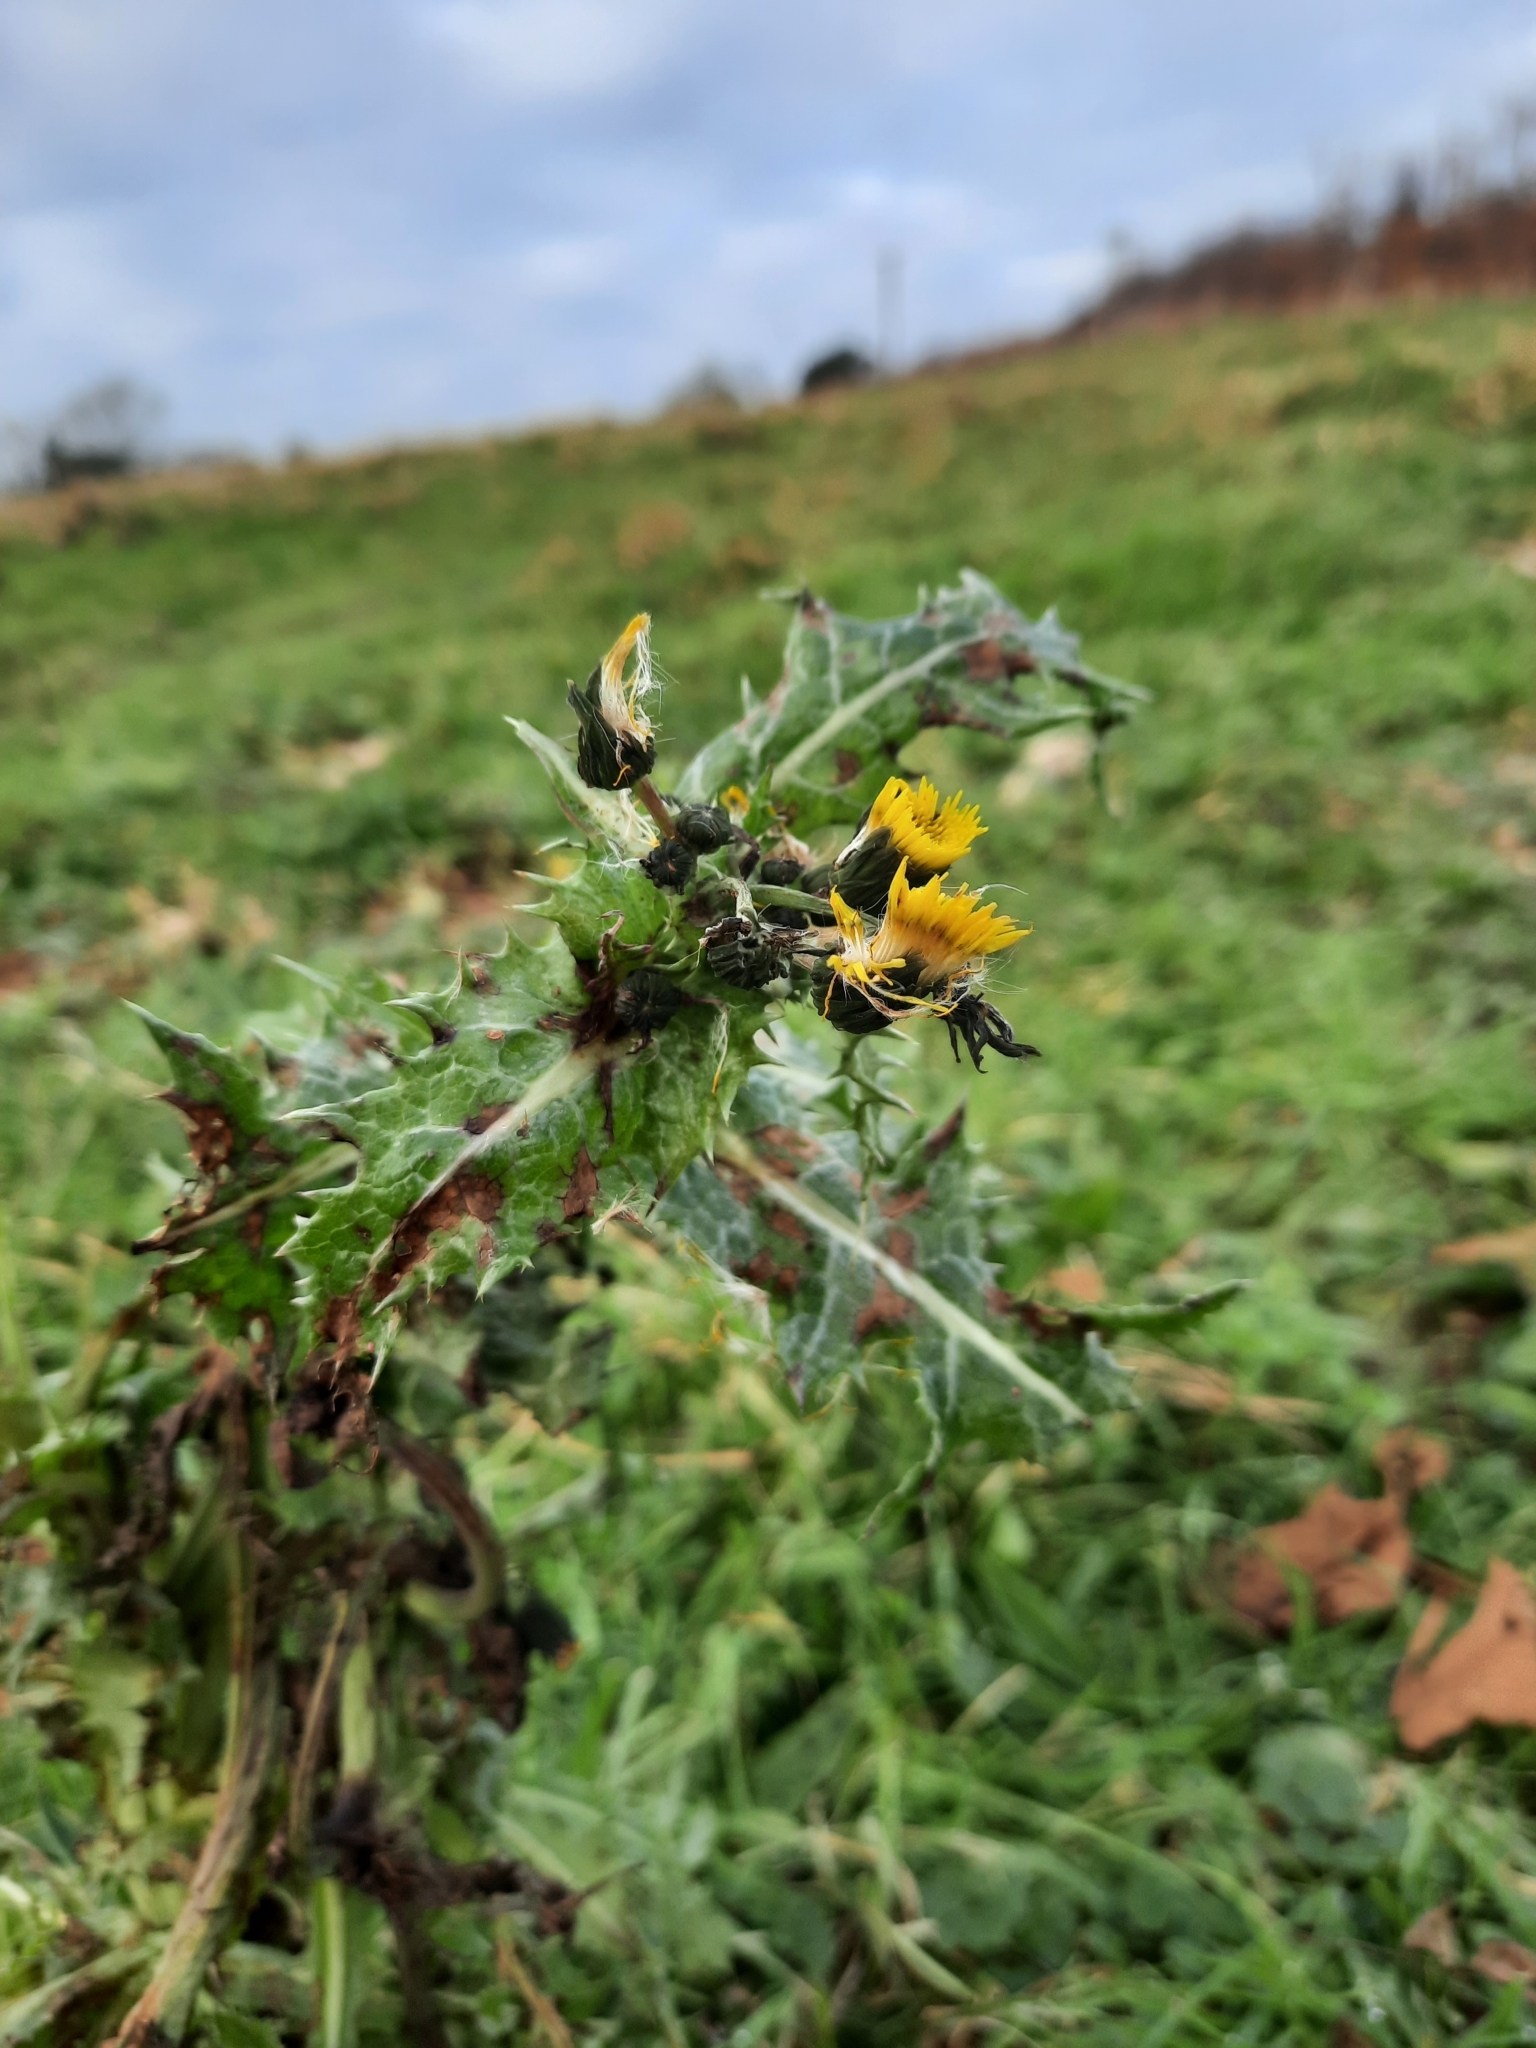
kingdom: Plantae
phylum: Tracheophyta
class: Magnoliopsida
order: Asterales
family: Asteraceae
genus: Sonchus
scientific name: Sonchus asper
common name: Prickly sow-thistle
